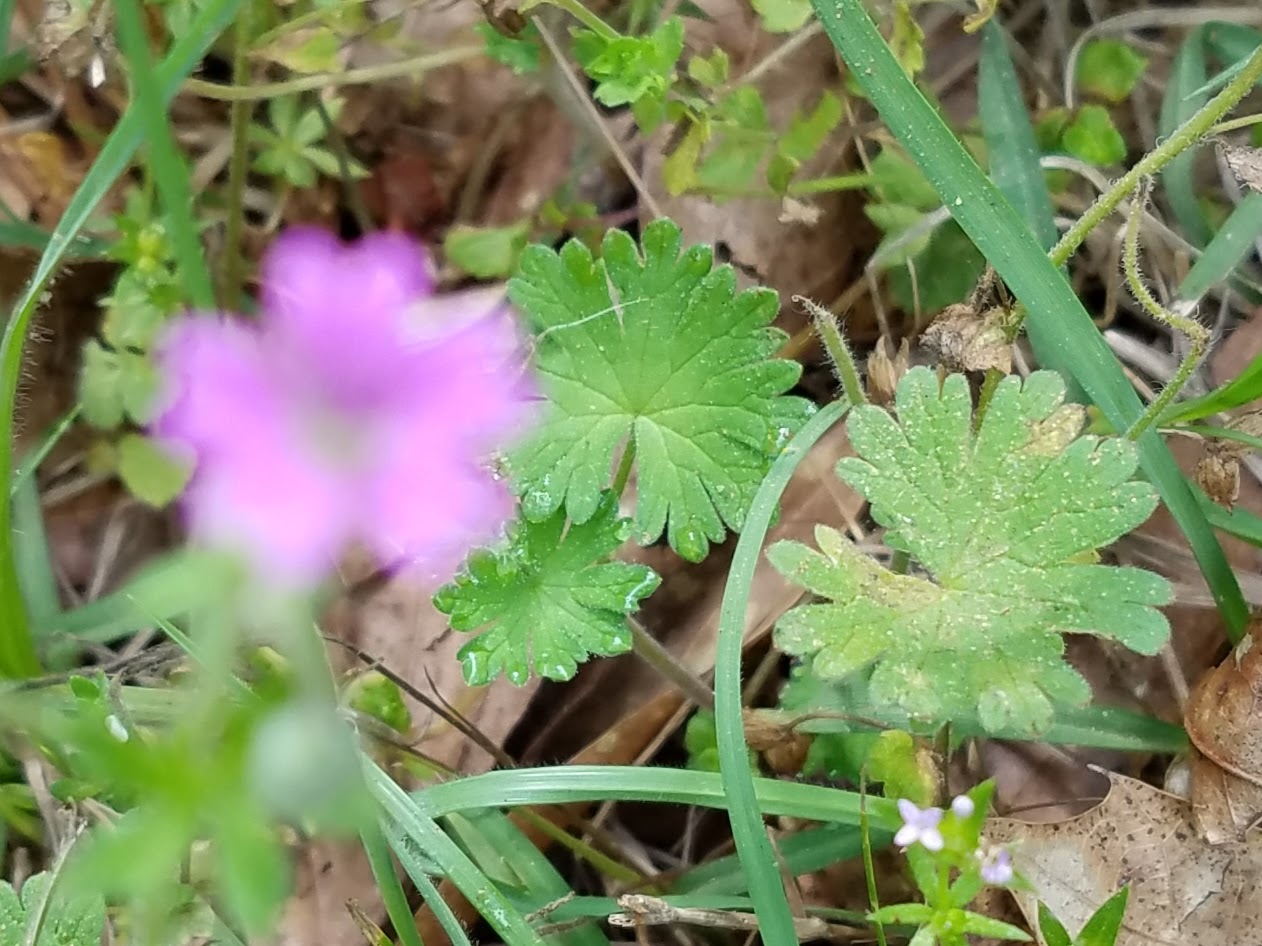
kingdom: Plantae
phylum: Tracheophyta
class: Magnoliopsida
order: Geraniales
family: Geraniaceae
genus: Geranium
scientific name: Geranium molle
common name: Dove's-foot crane's-bill
